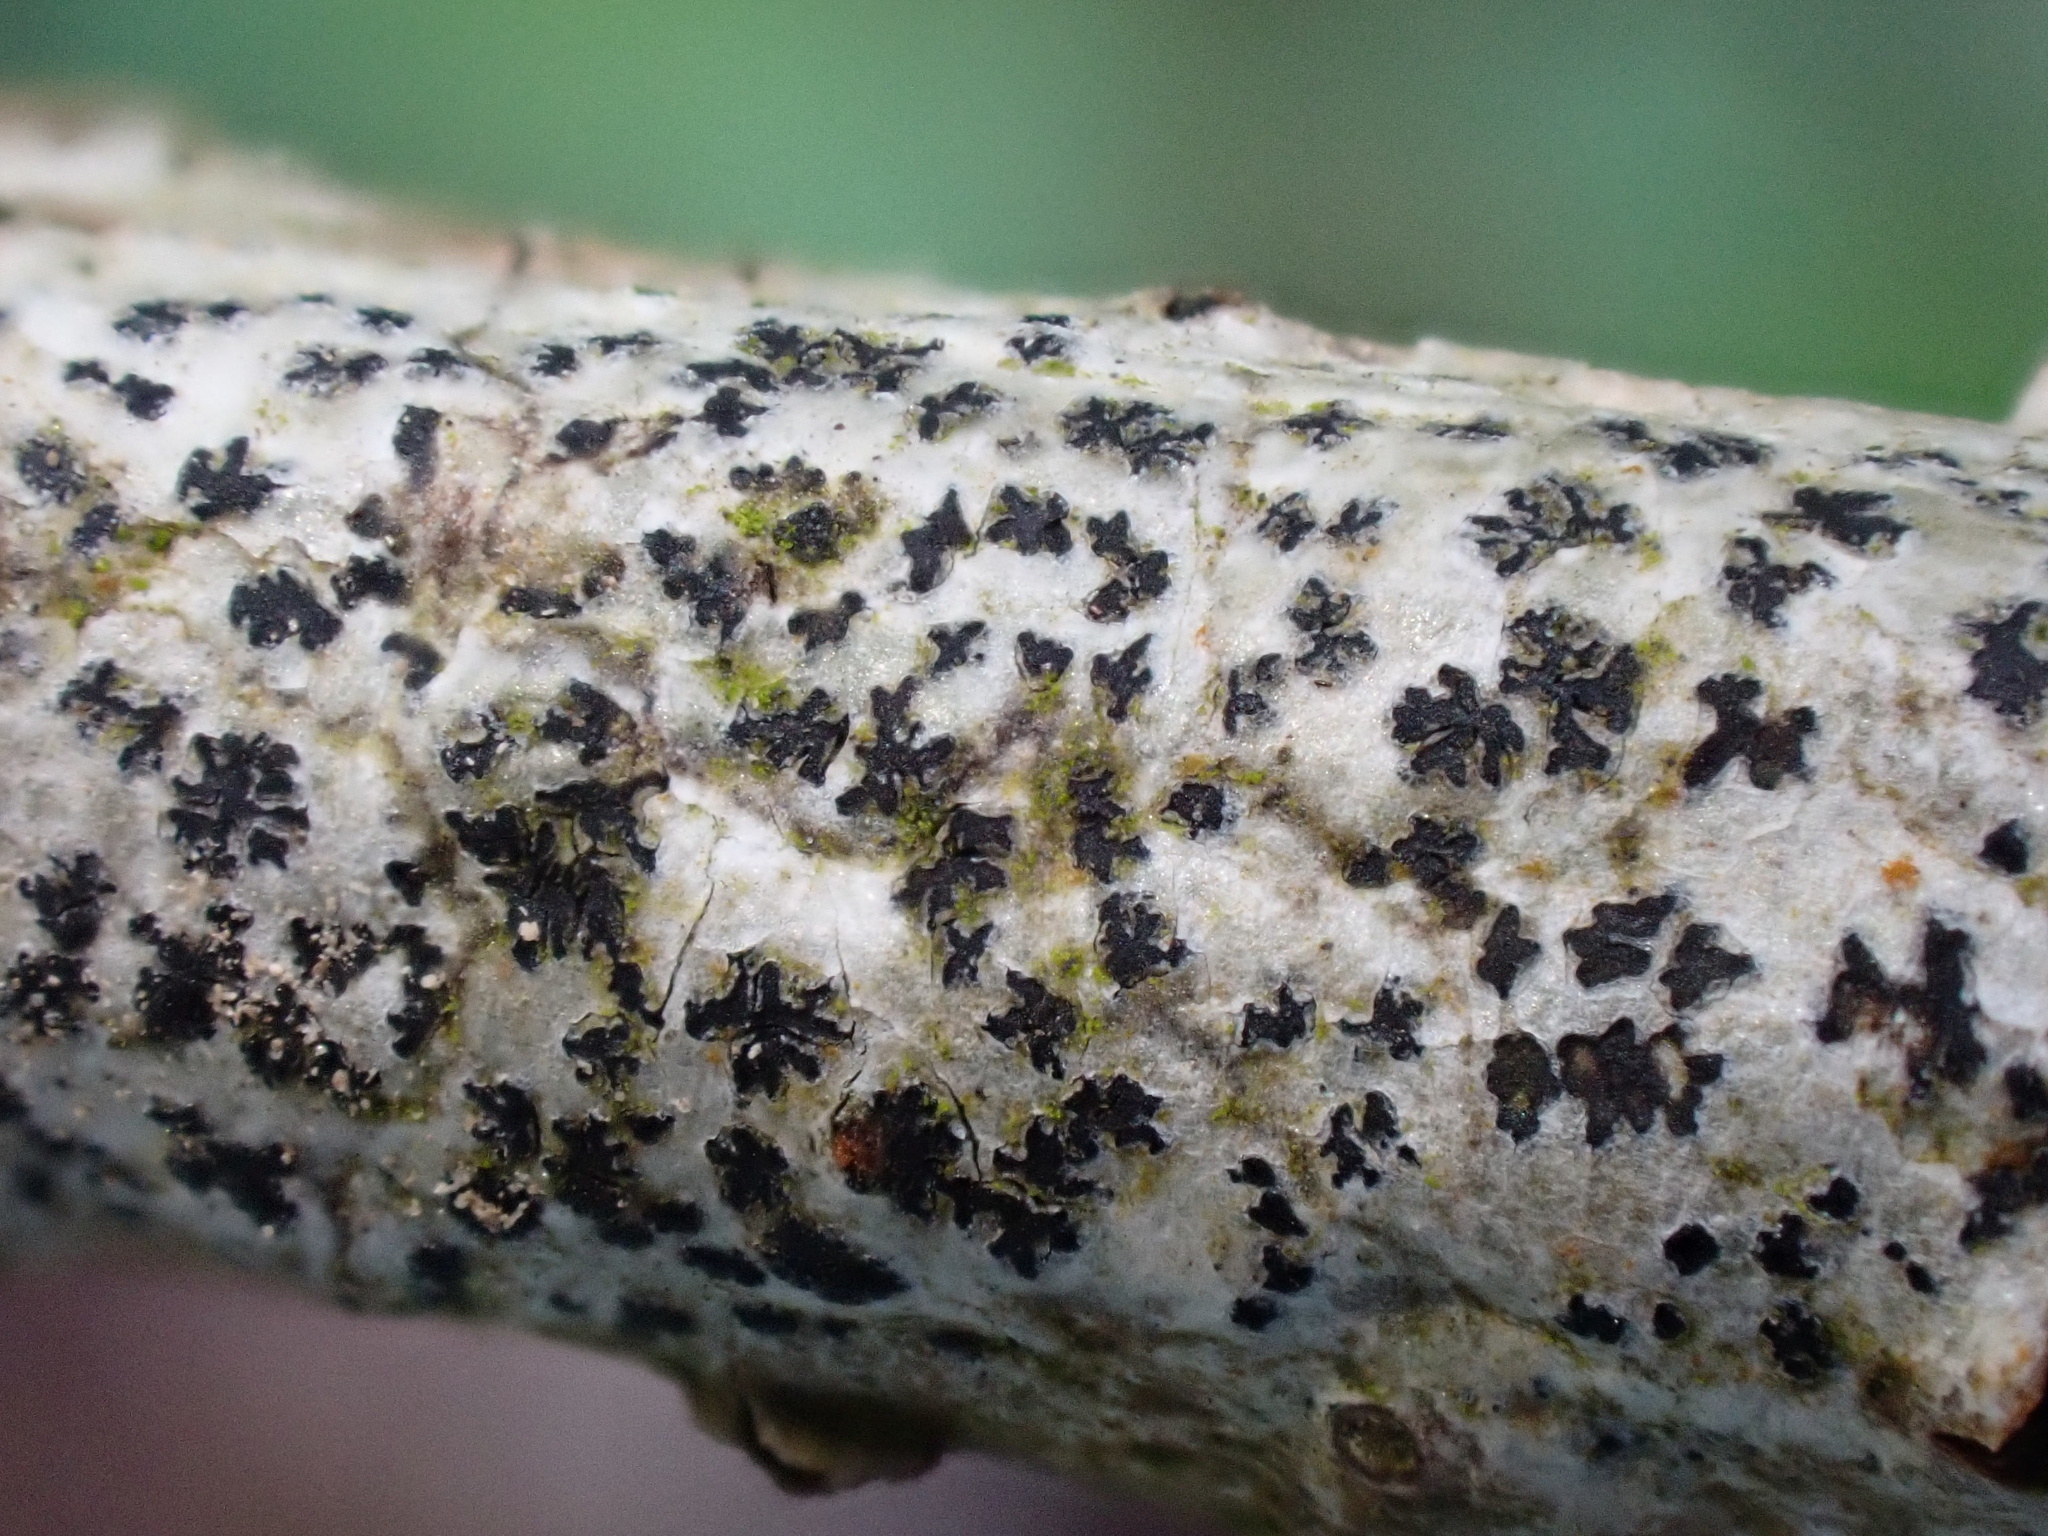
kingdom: Fungi
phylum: Ascomycota
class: Arthoniomycetes
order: Arthoniales
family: Arthoniaceae
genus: Arthonia
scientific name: Arthonia radiata
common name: Asterisk lichen
